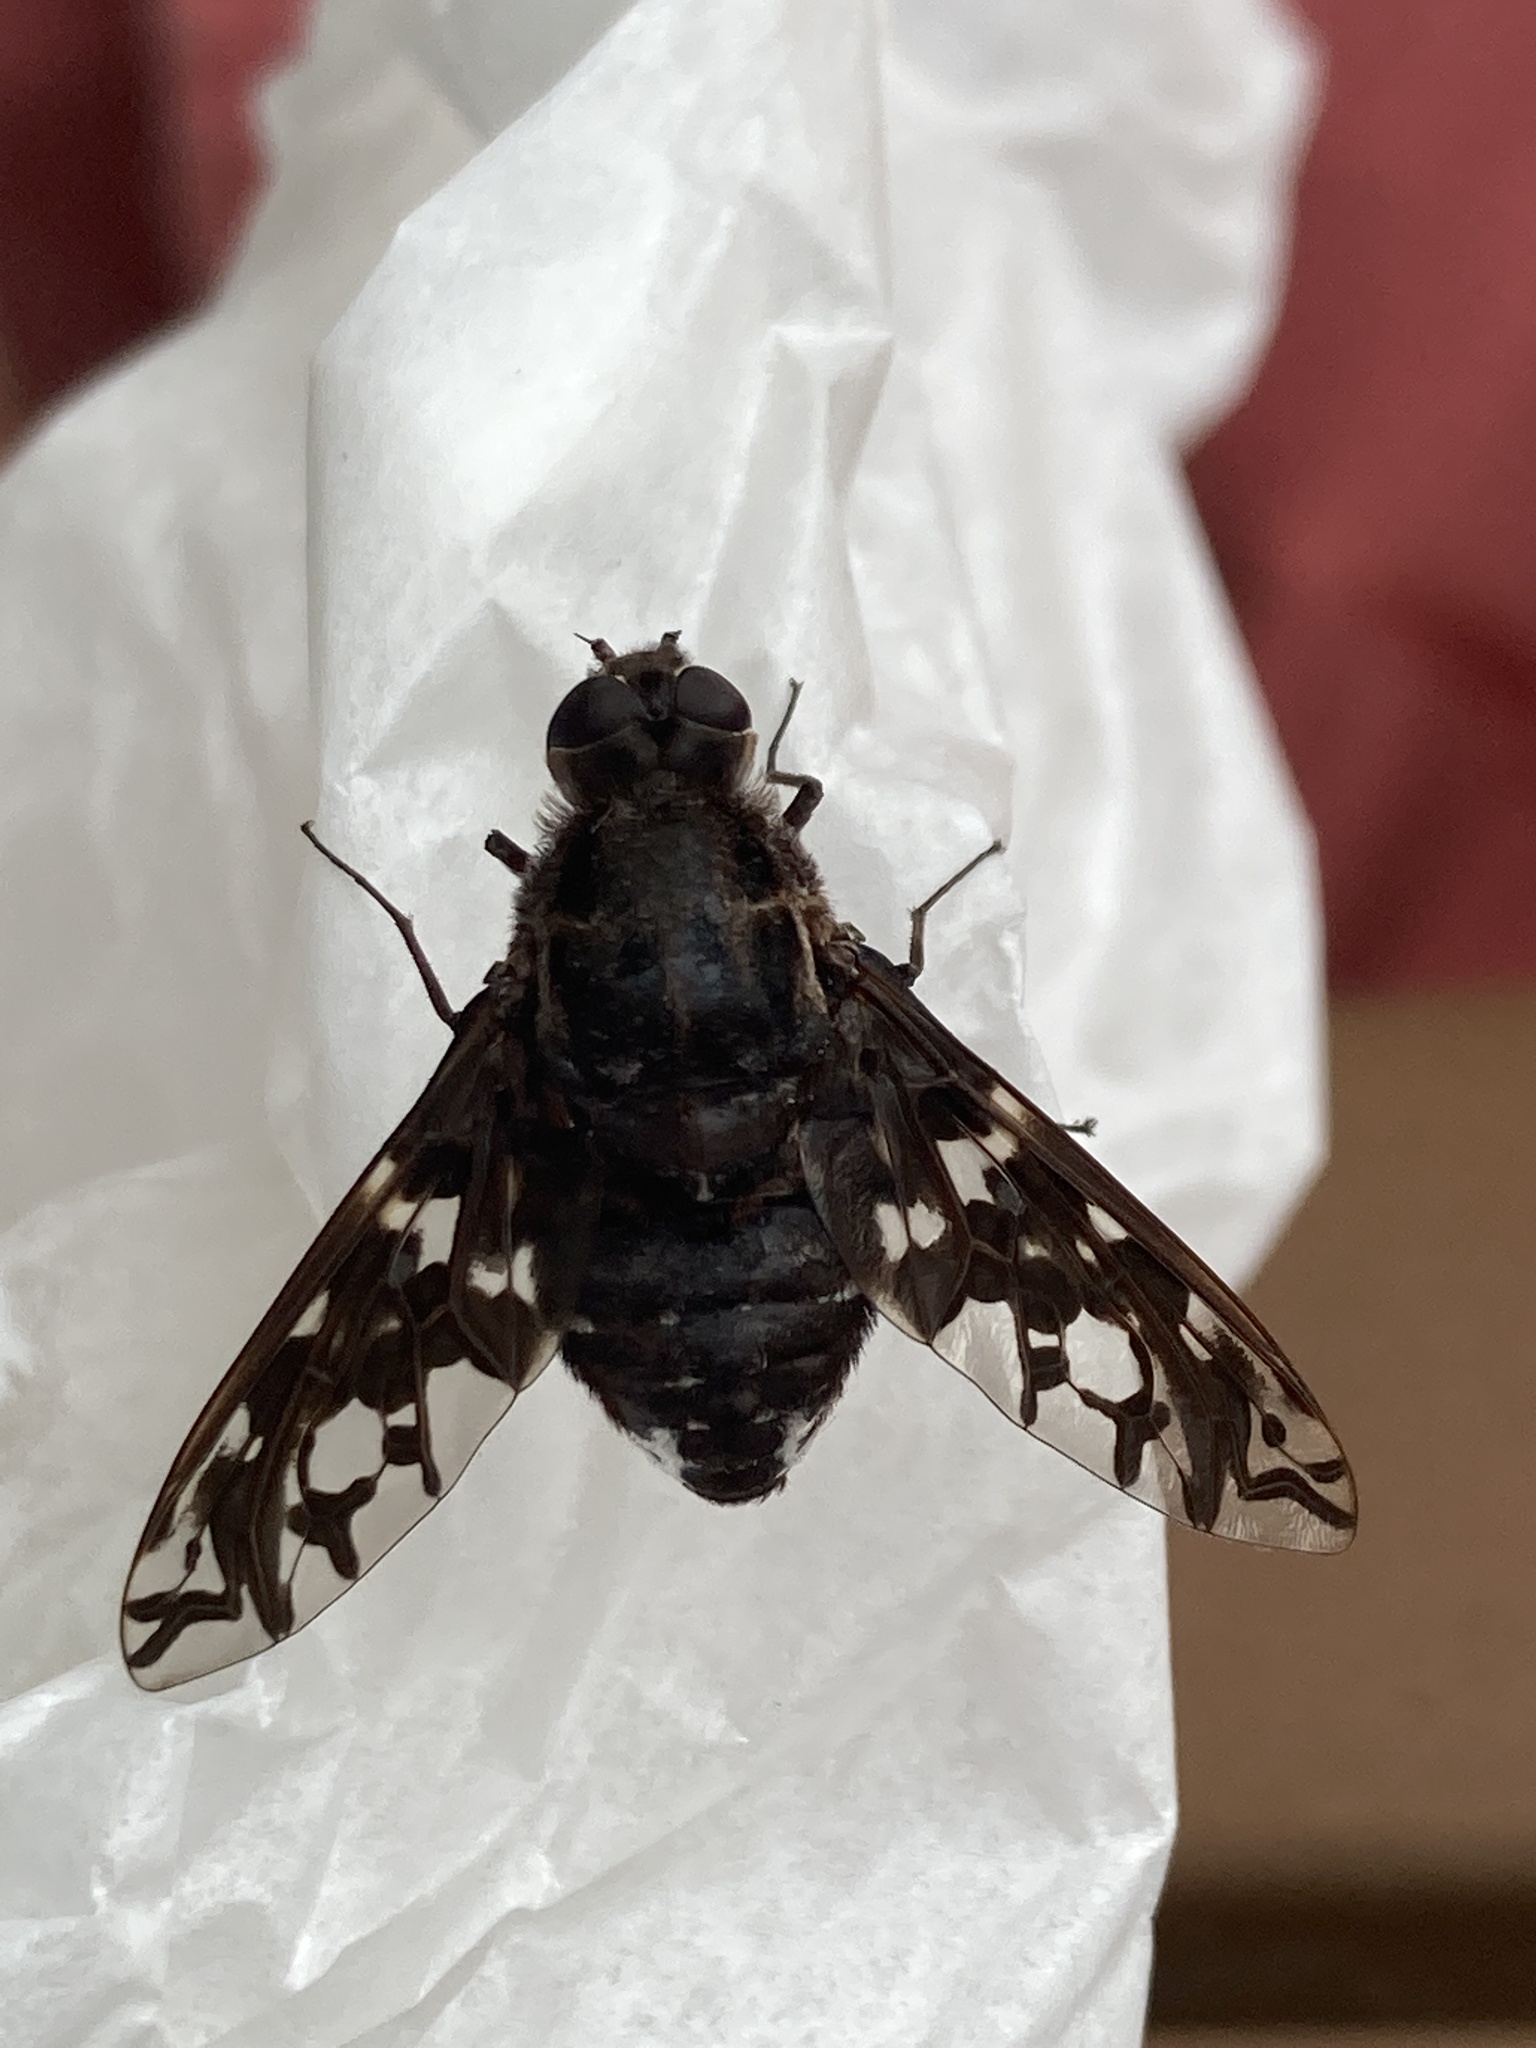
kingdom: Animalia
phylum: Arthropoda
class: Insecta
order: Diptera
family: Bombyliidae
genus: Xenox
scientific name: Xenox tigrinus
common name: Tiger bee fly
